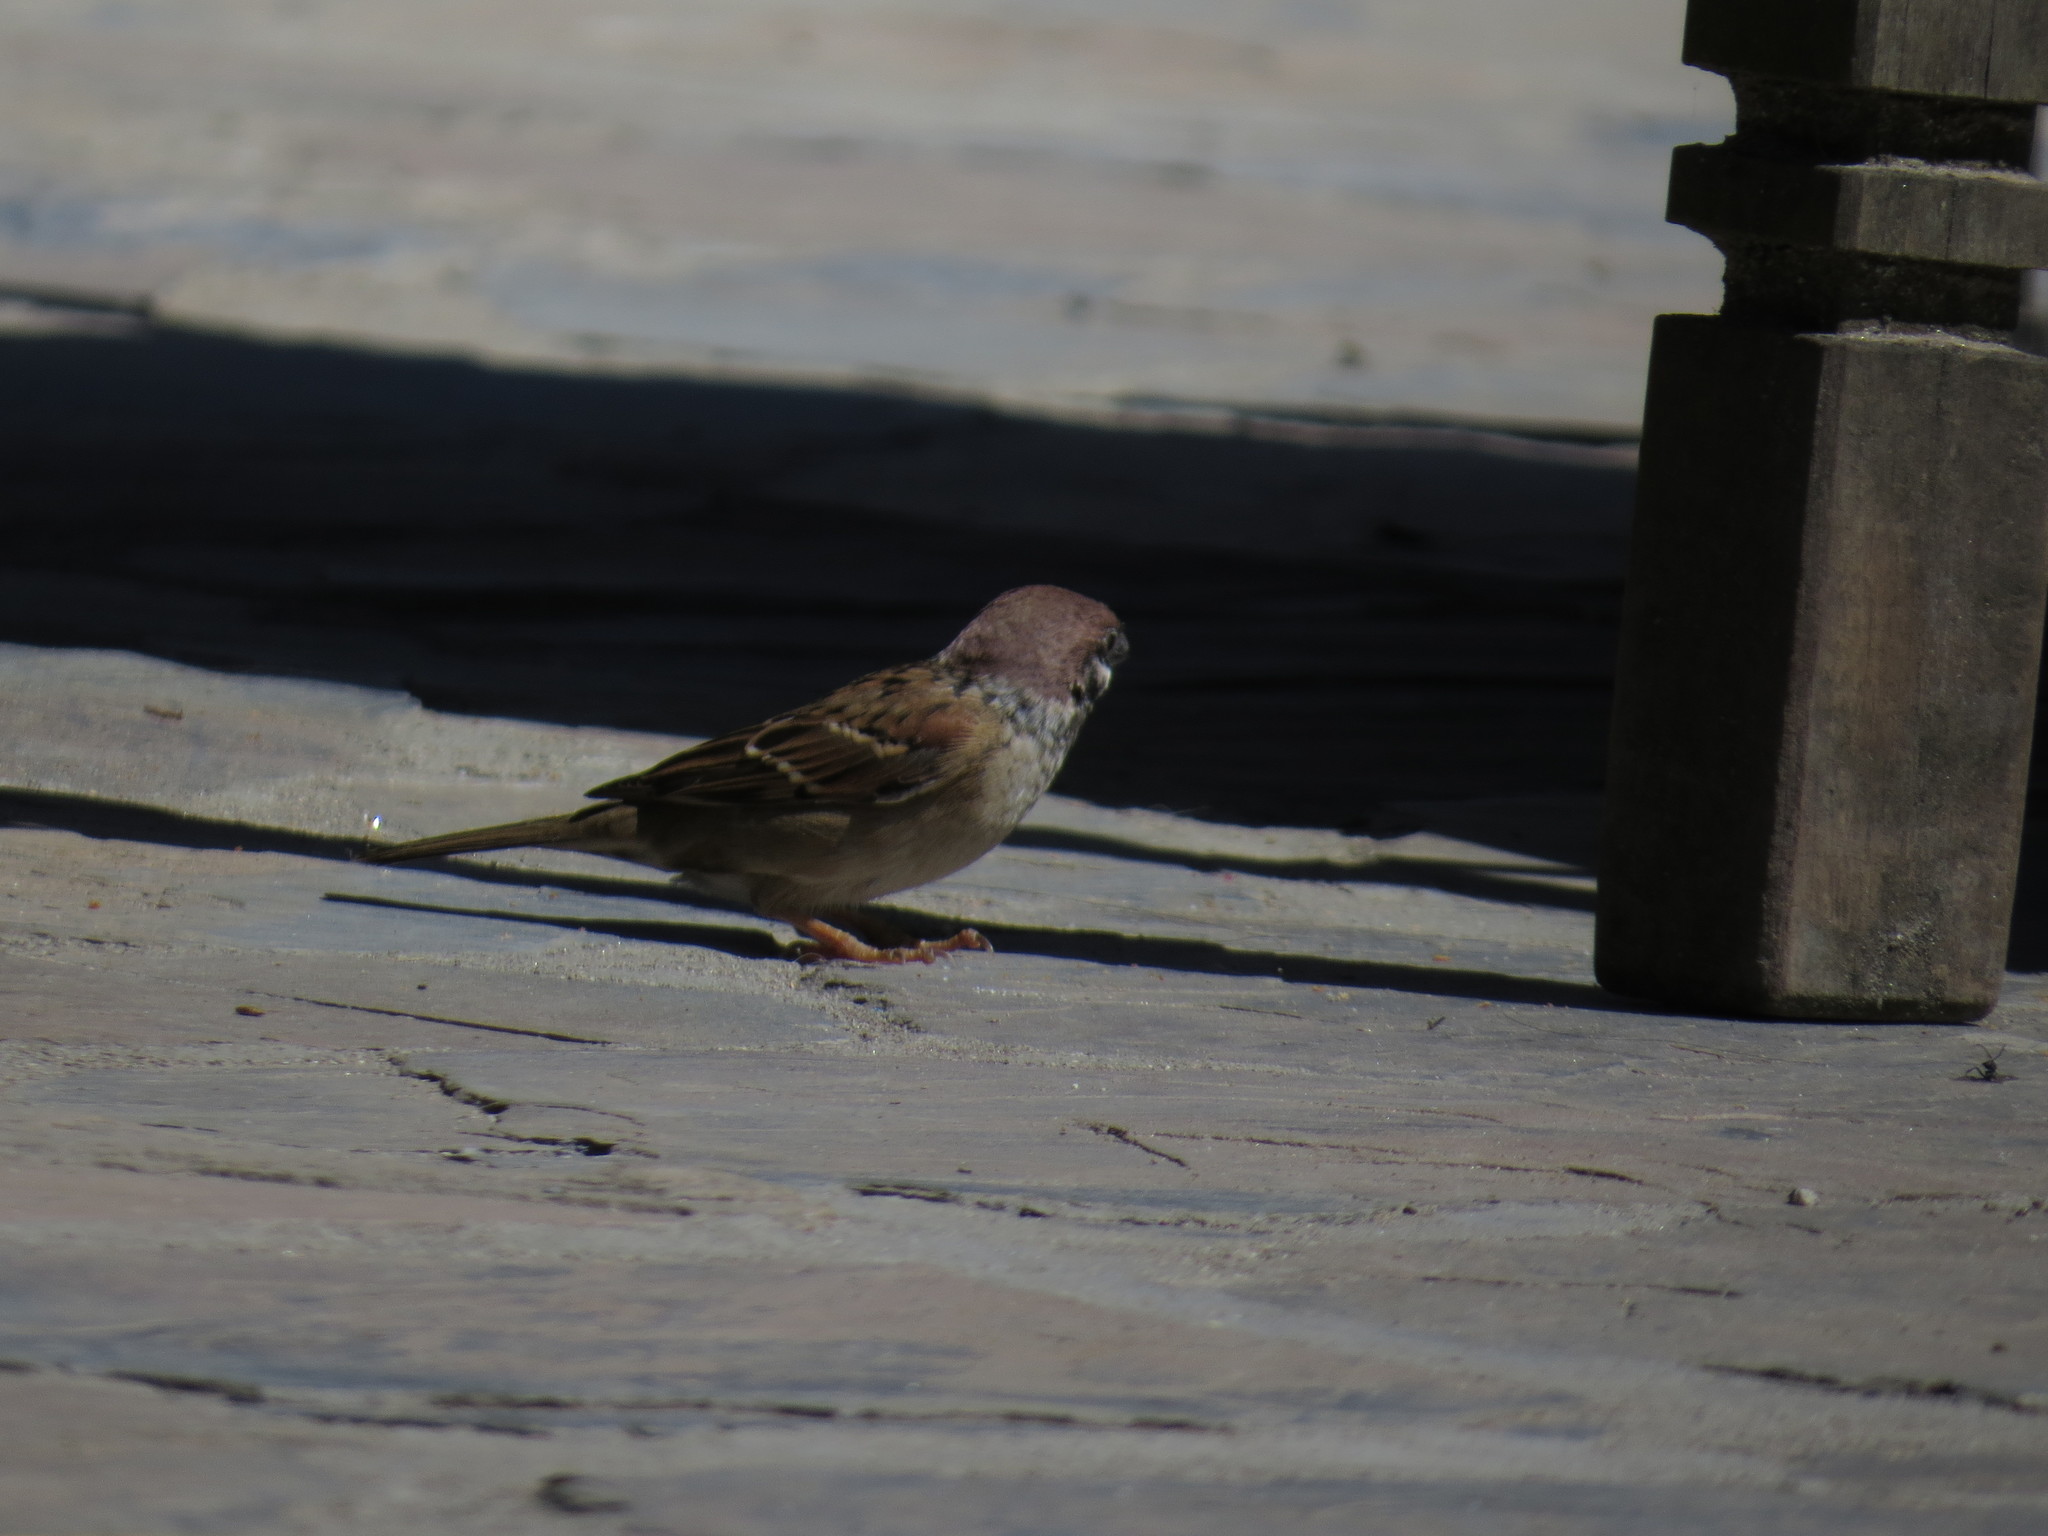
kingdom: Animalia
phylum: Chordata
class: Aves
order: Passeriformes
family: Passeridae
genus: Passer
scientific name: Passer montanus
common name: Eurasian tree sparrow
